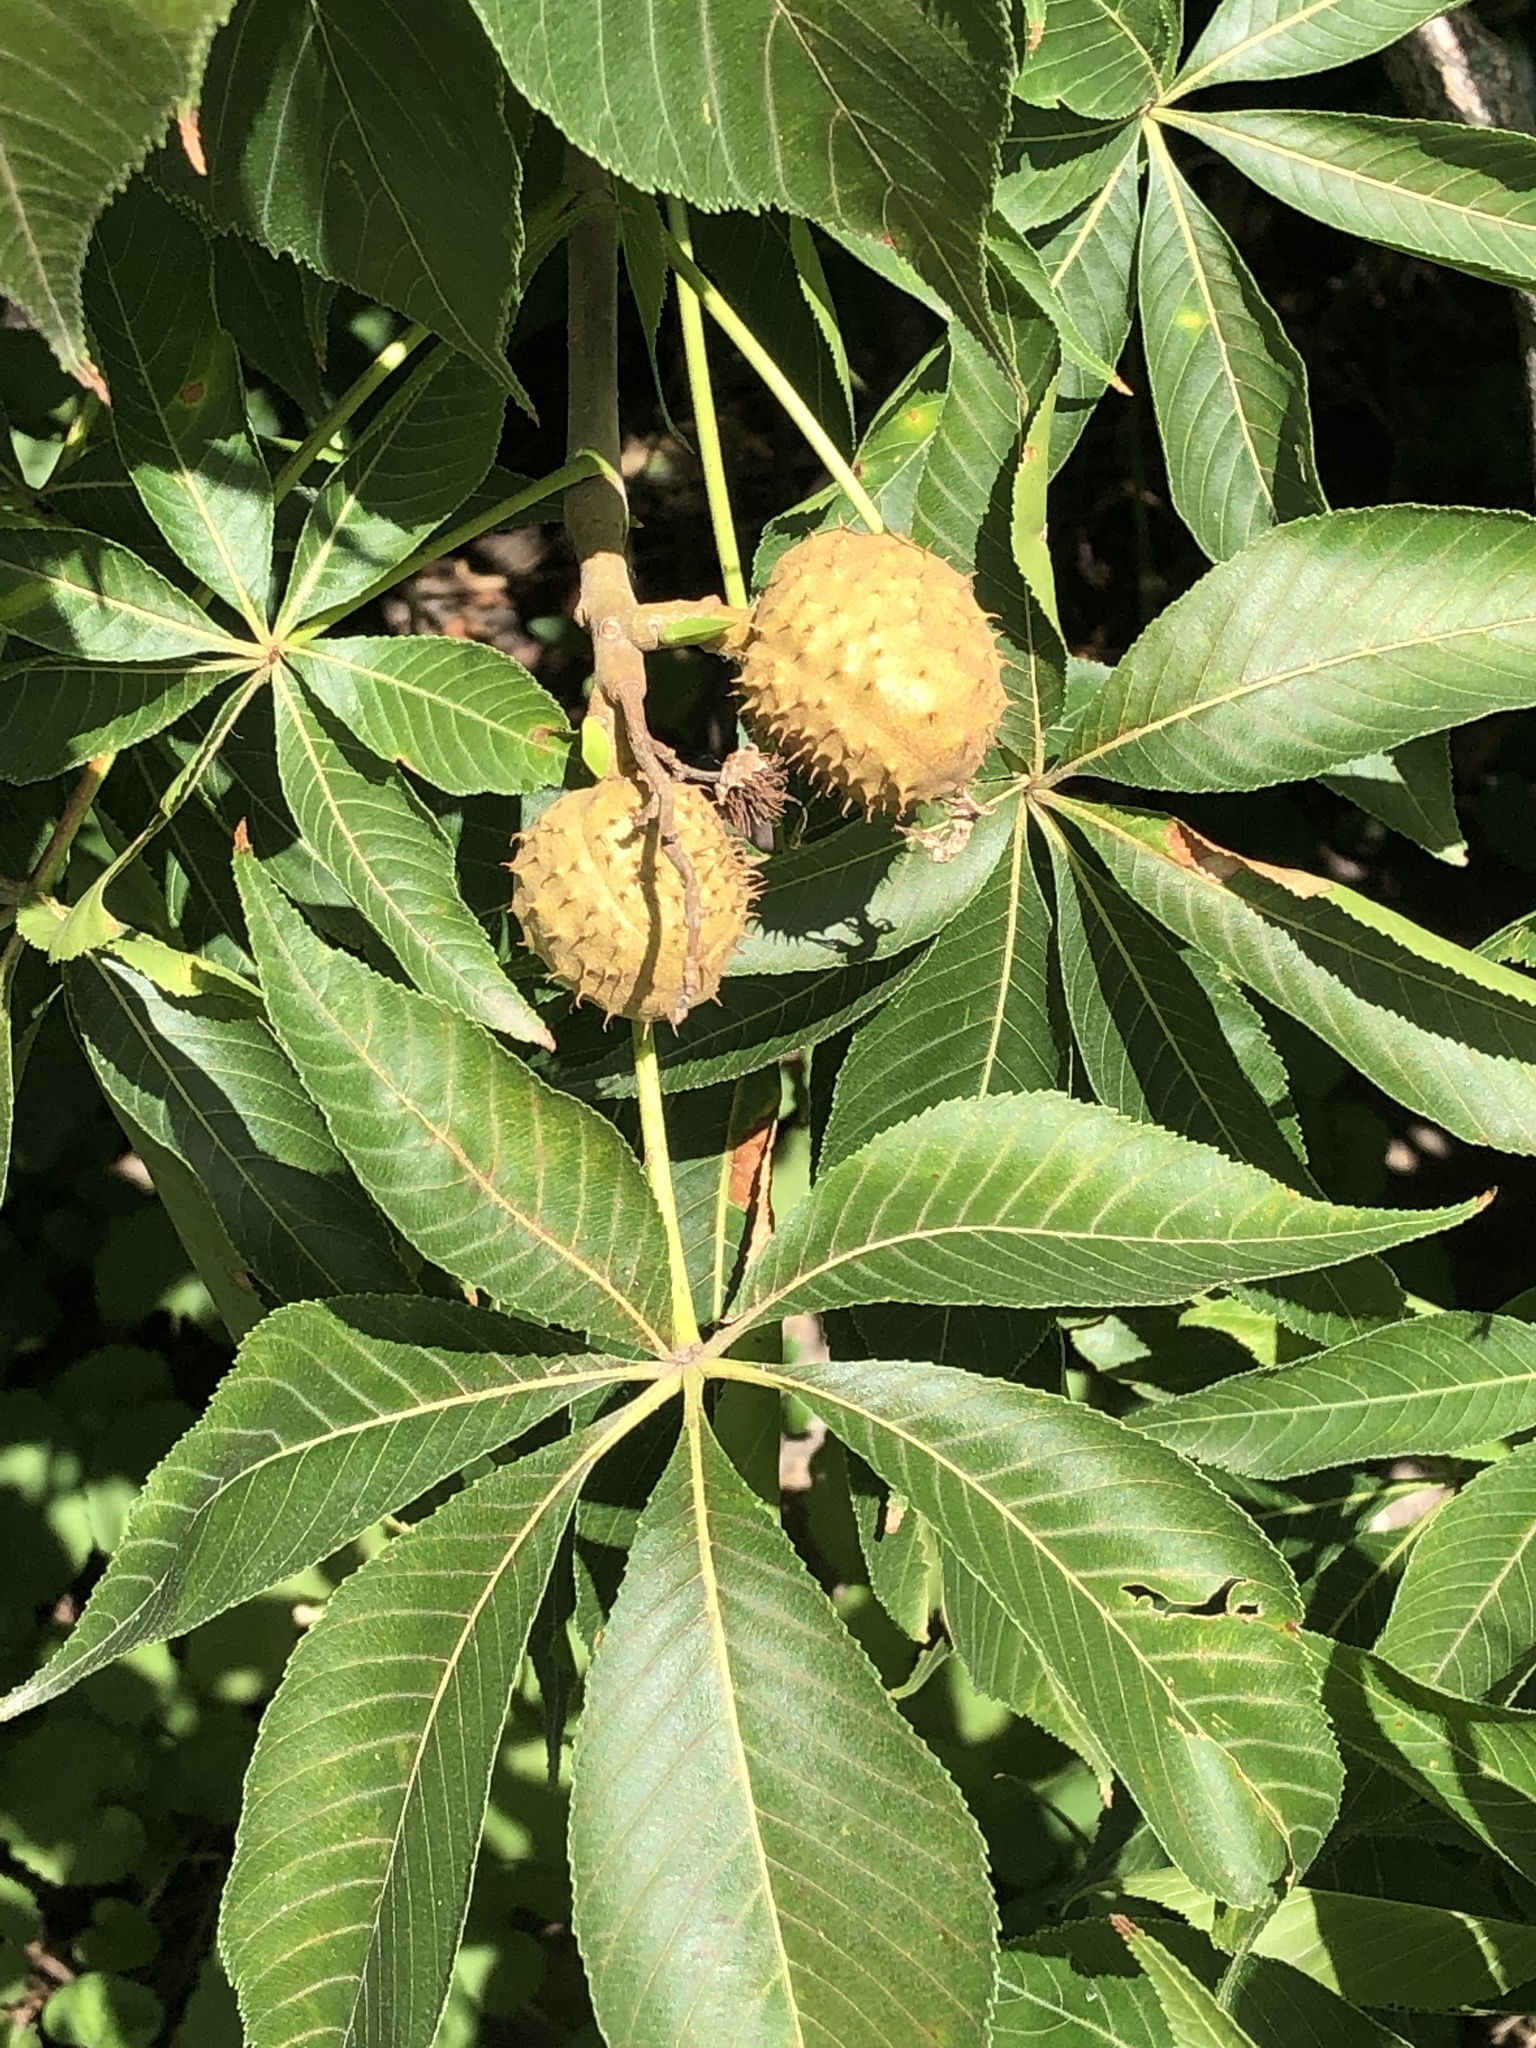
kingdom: Plantae
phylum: Tracheophyta
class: Magnoliopsida
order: Sapindales
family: Sapindaceae
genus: Aesculus
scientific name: Aesculus glabra
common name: Ohio buckeye
